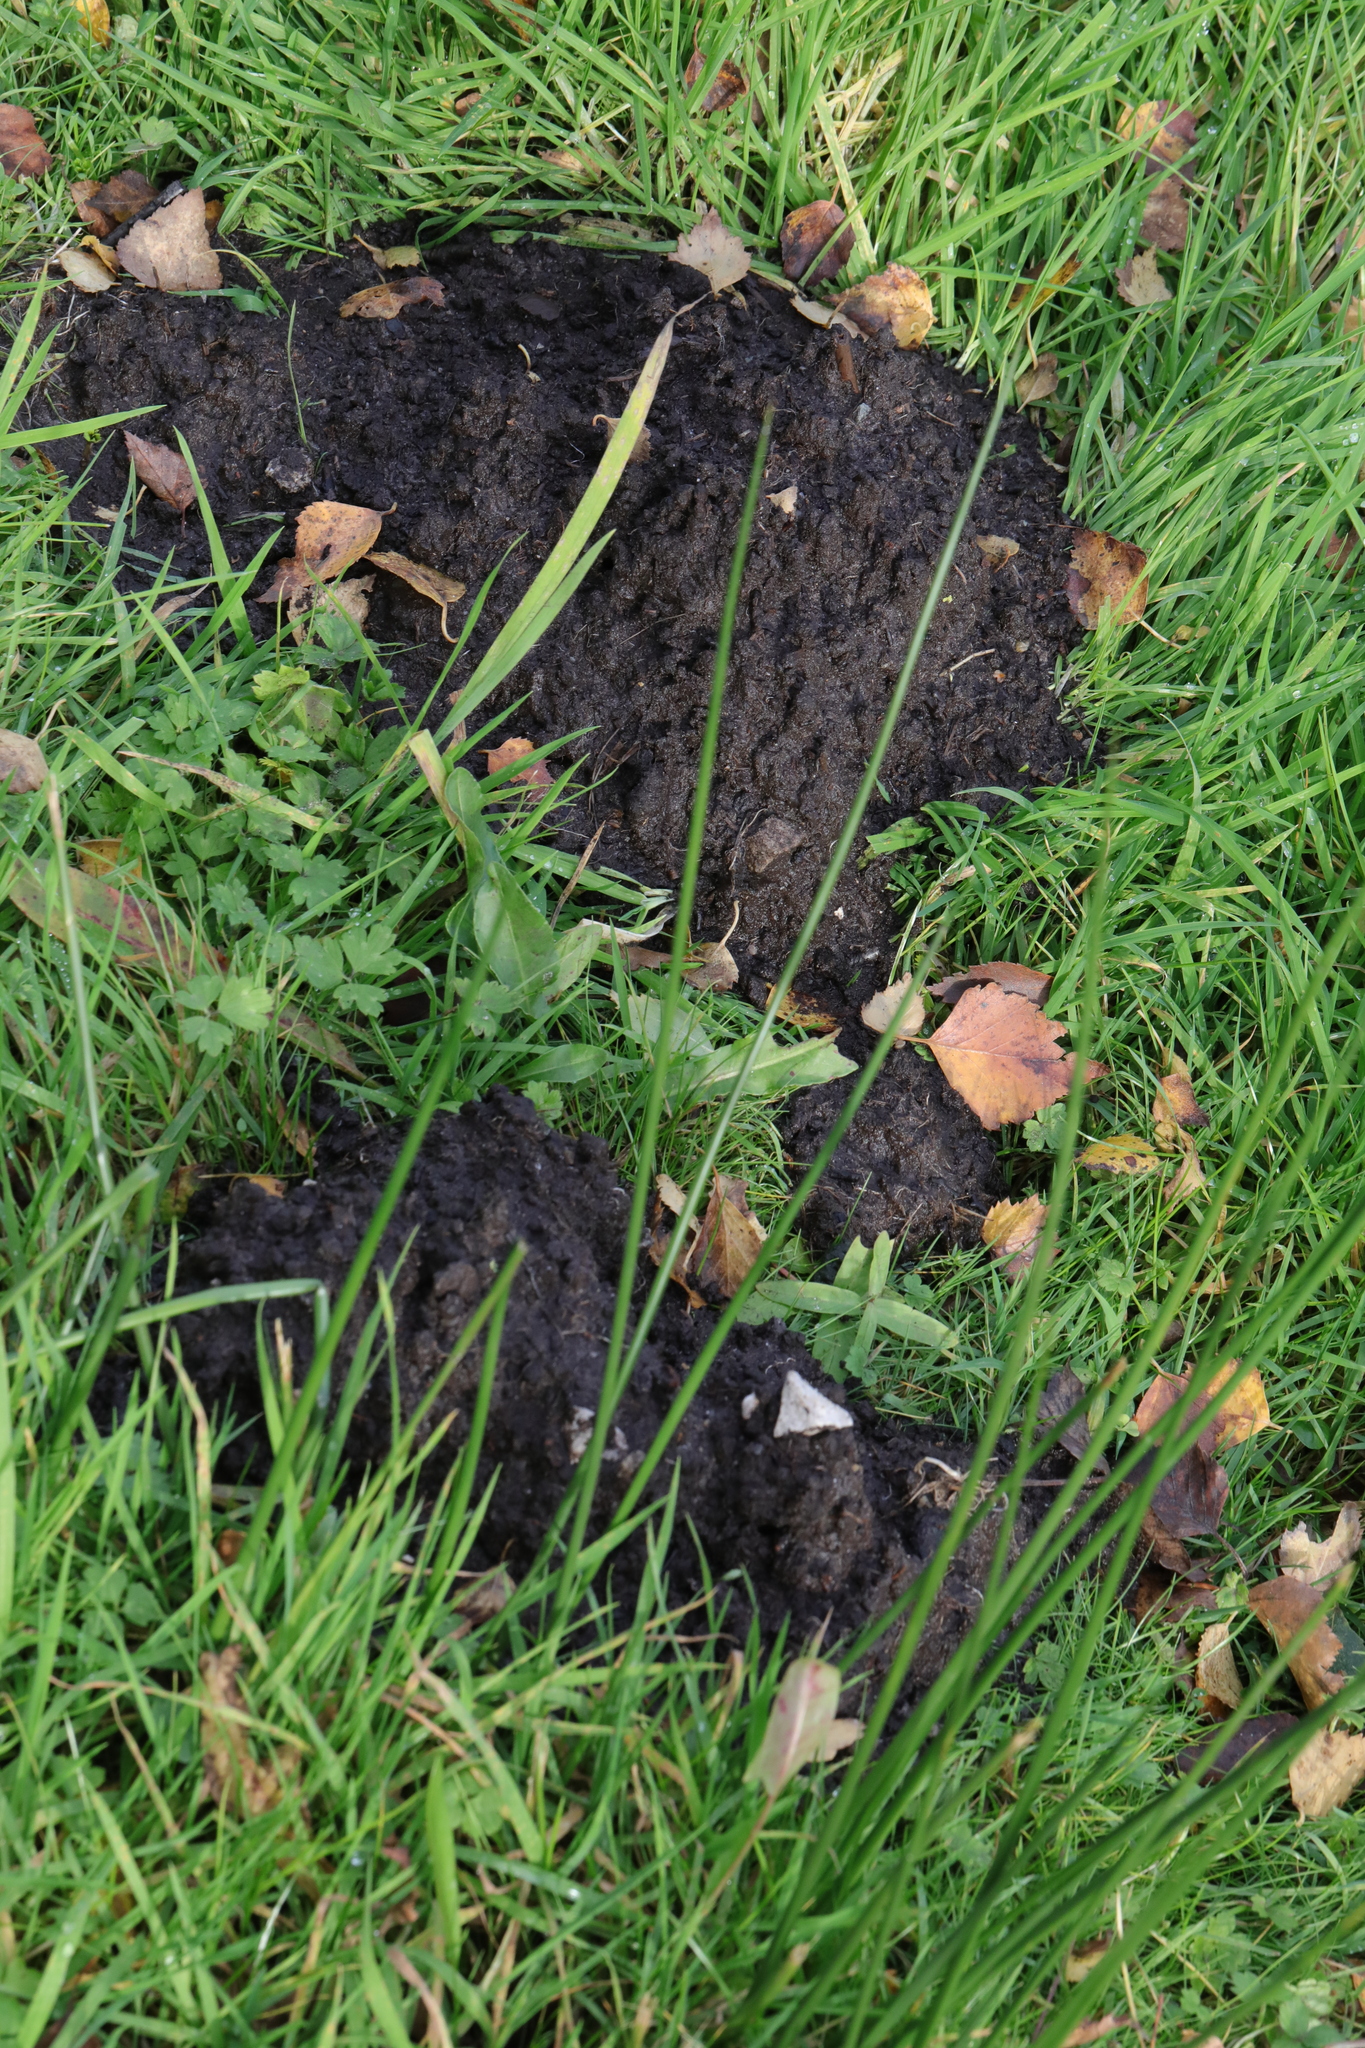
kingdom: Animalia
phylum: Chordata
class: Mammalia
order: Soricomorpha
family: Talpidae
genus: Talpa
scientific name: Talpa europaea
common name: European mole
